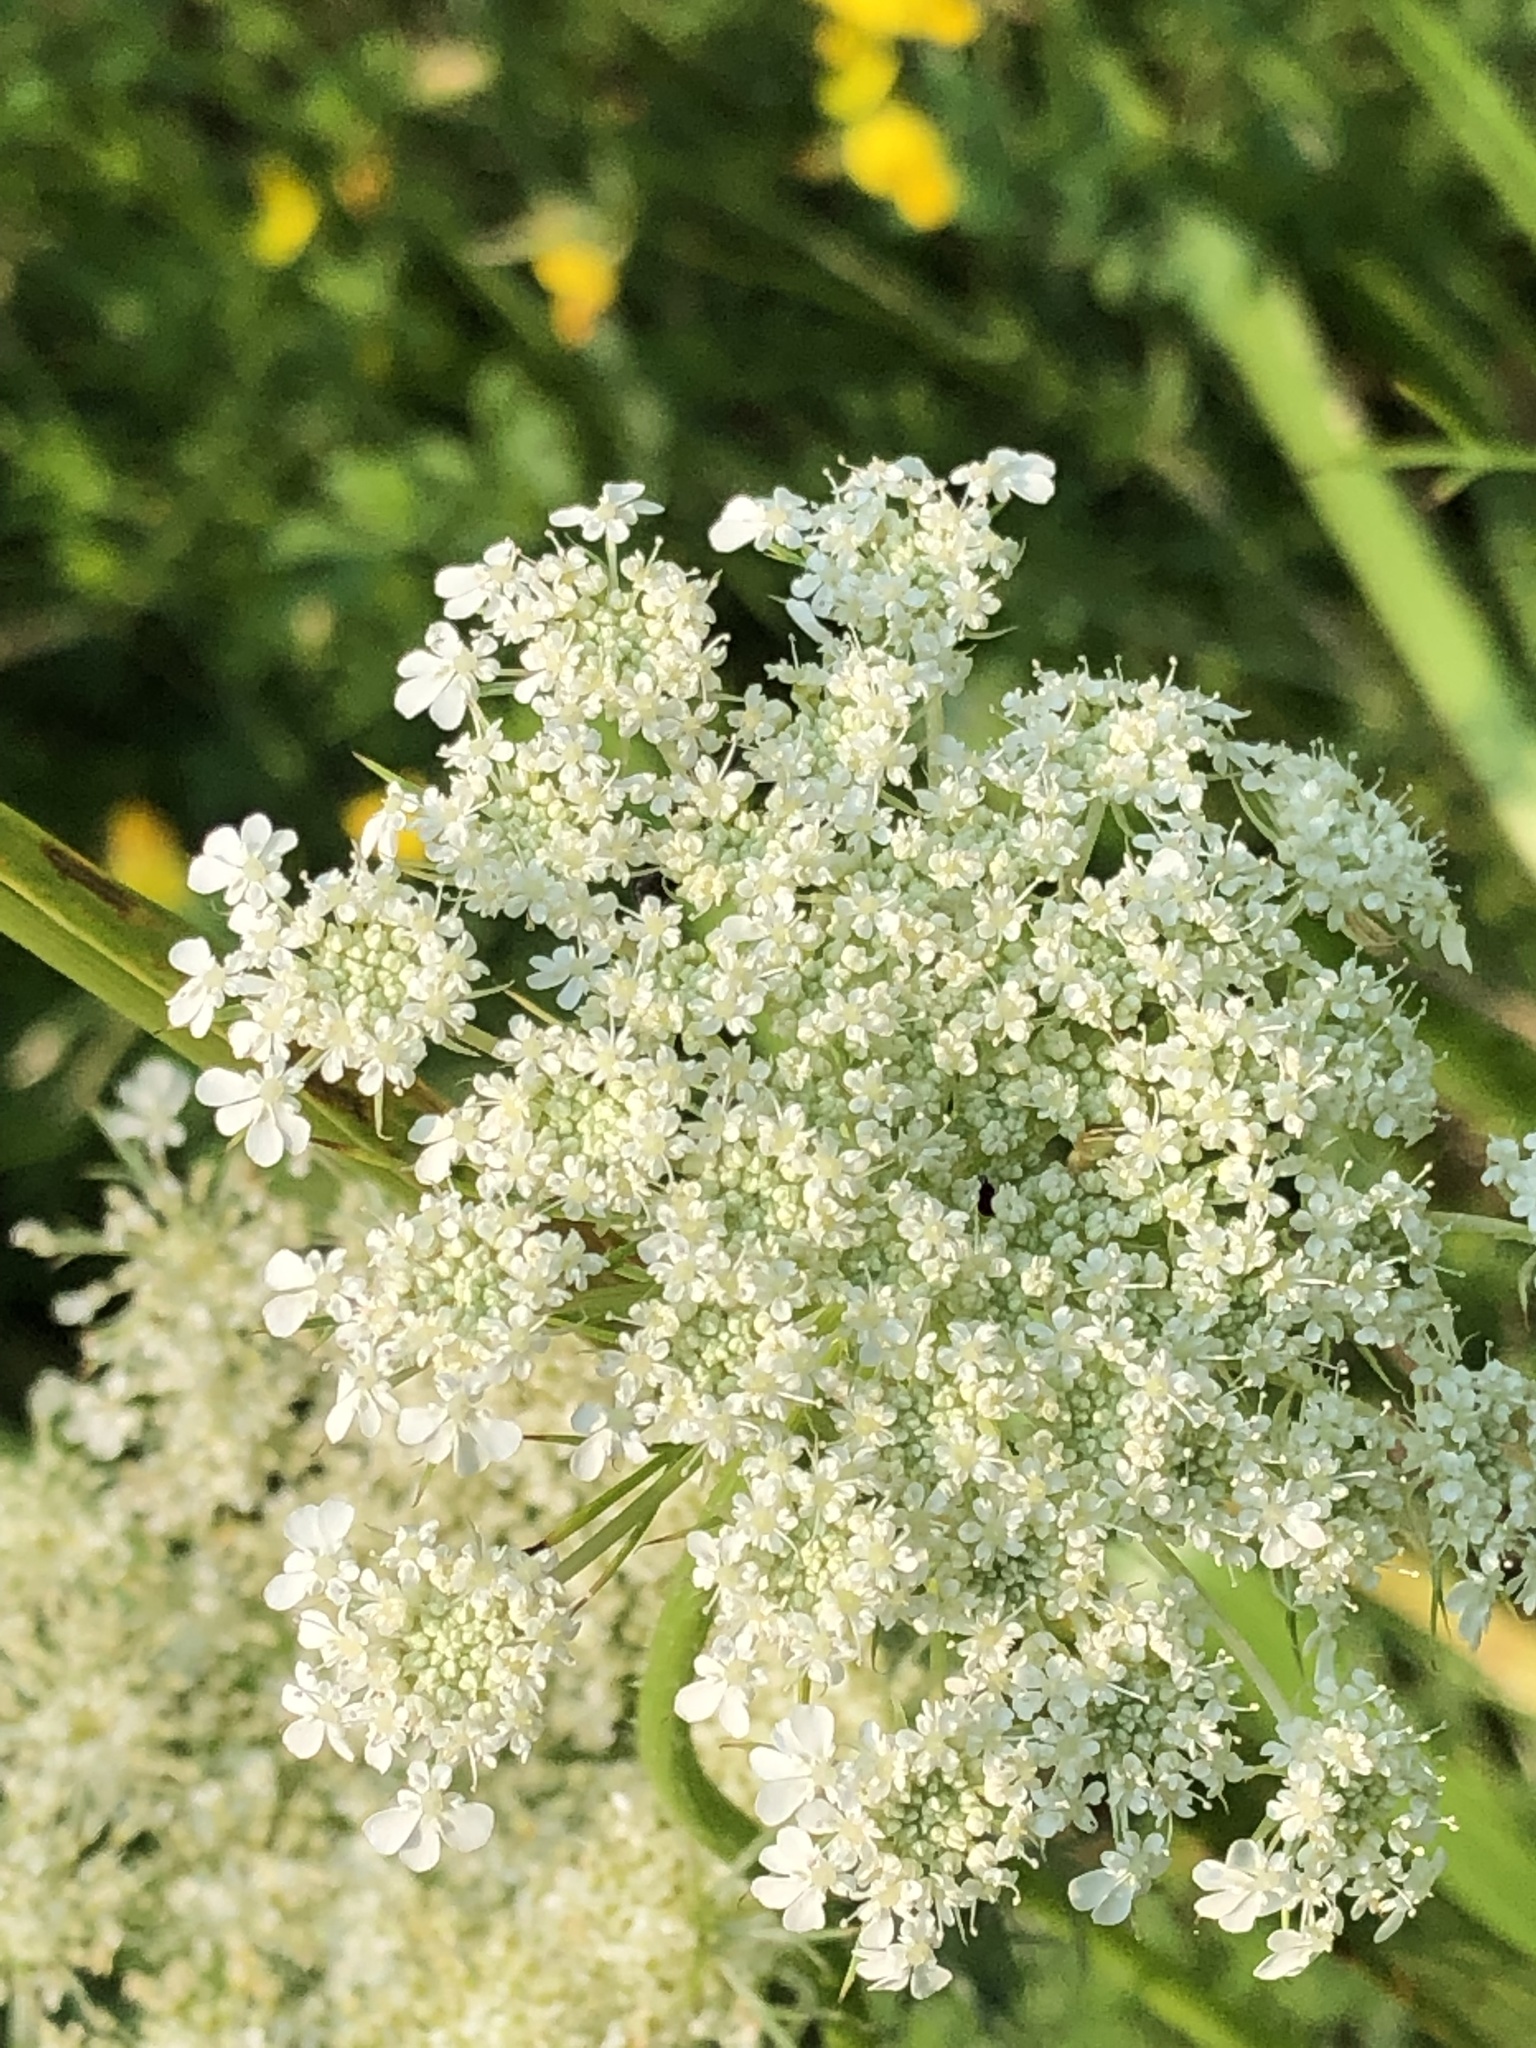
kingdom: Plantae
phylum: Tracheophyta
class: Magnoliopsida
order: Apiales
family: Apiaceae
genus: Daucus
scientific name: Daucus carota
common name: Wild carrot
